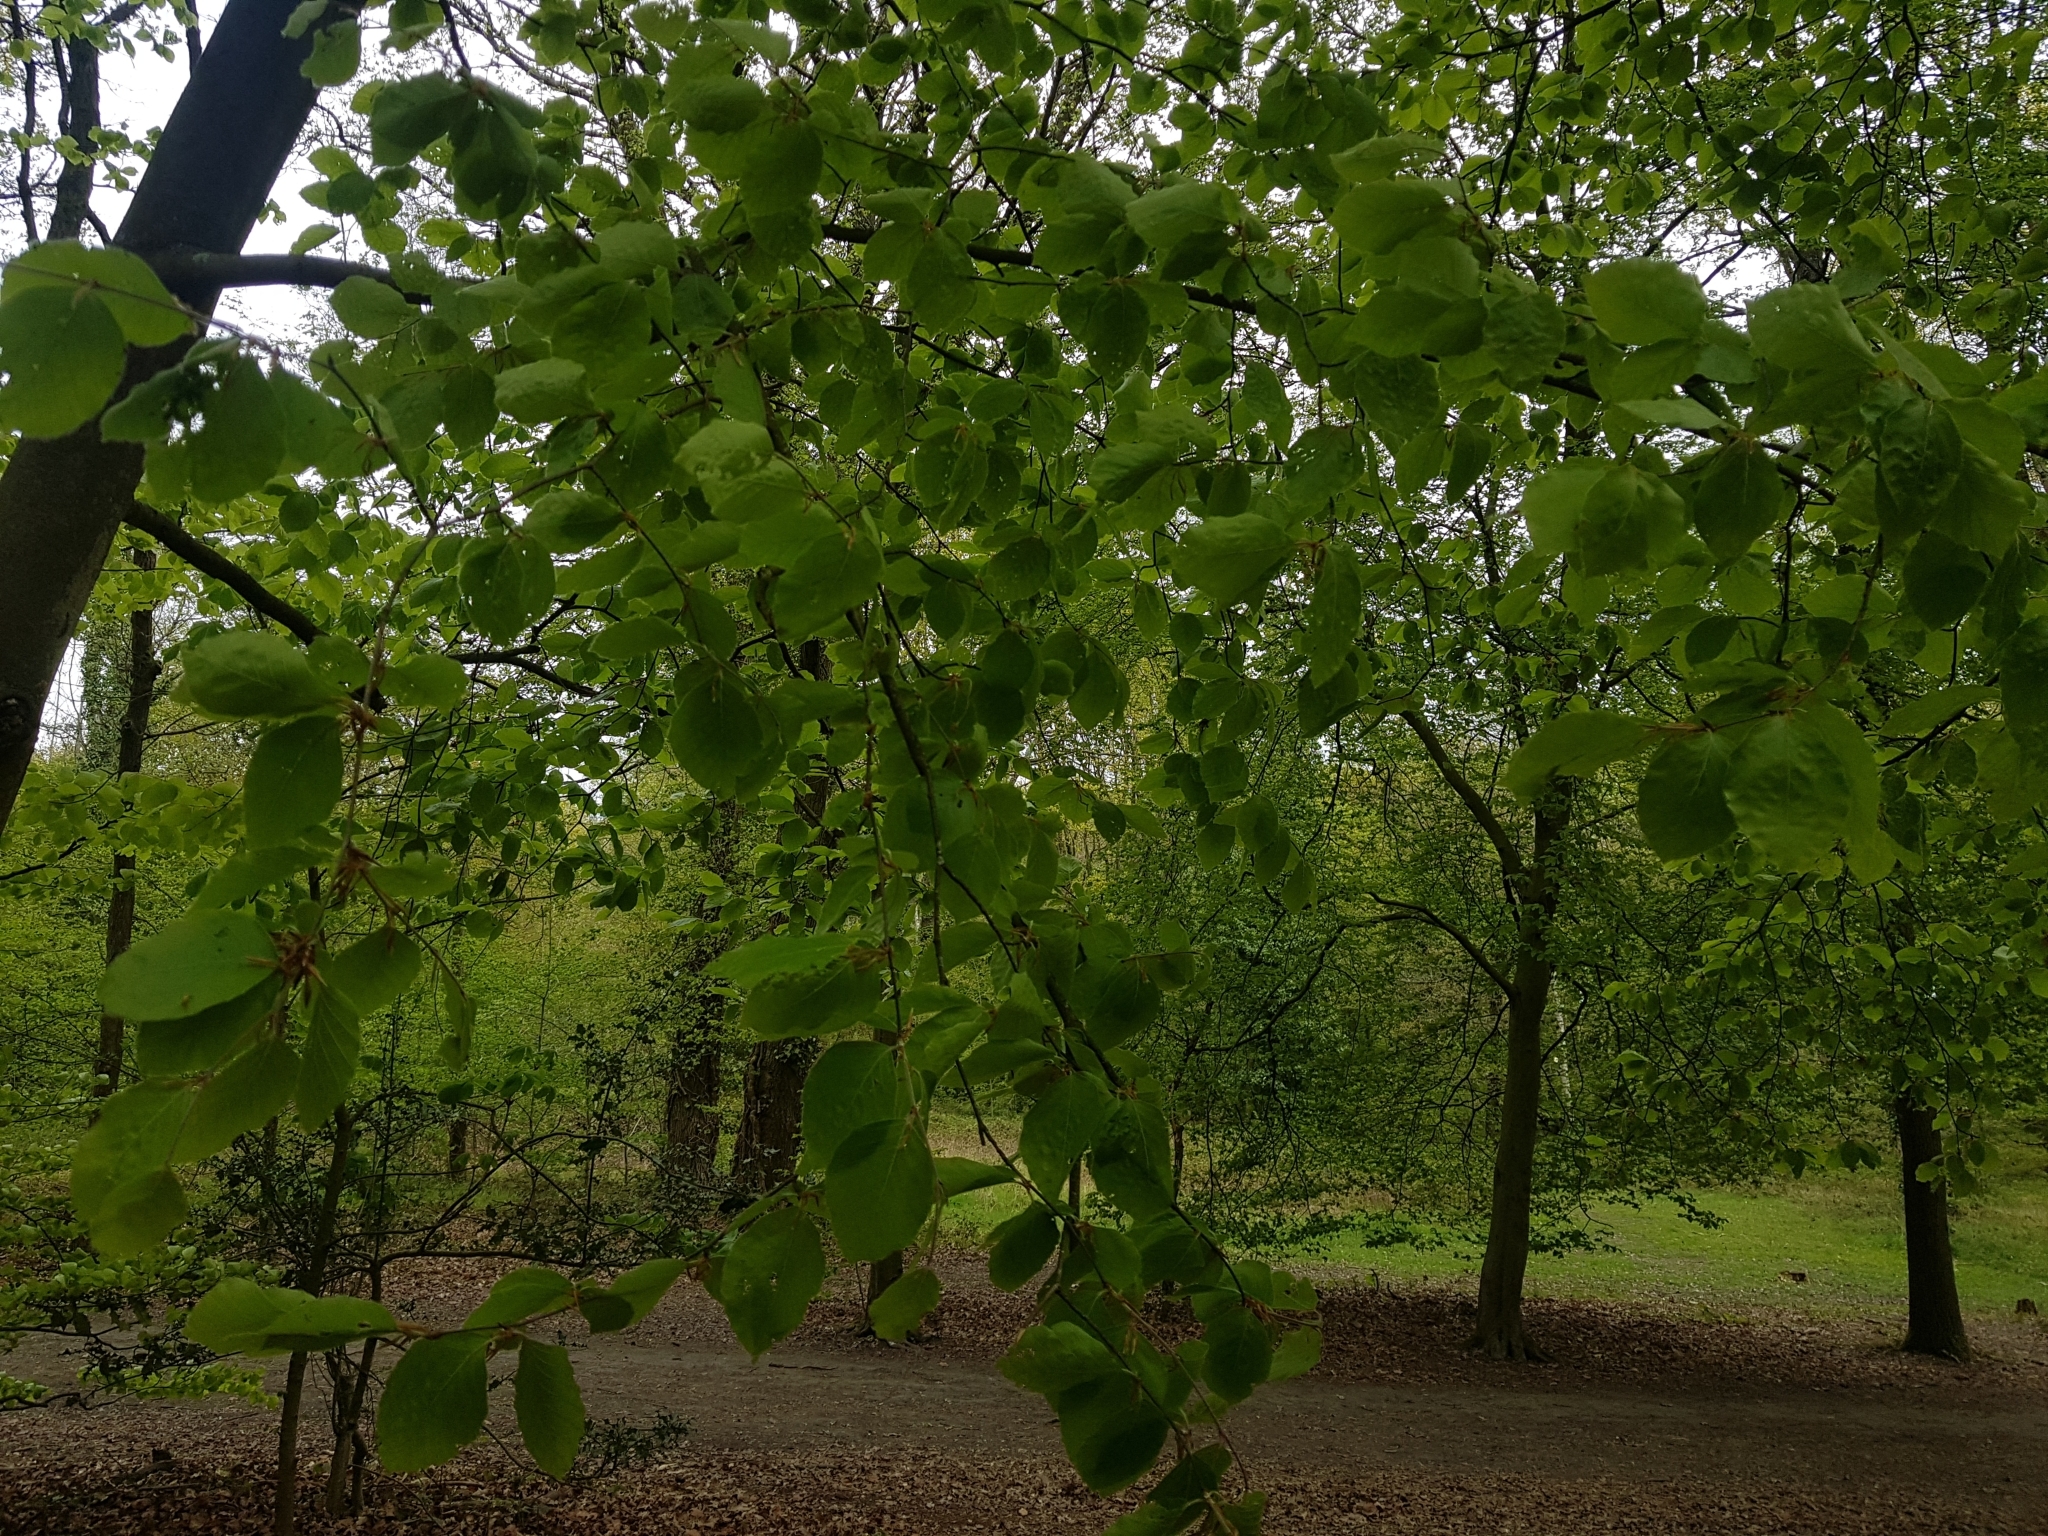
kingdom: Plantae
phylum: Tracheophyta
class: Magnoliopsida
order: Fagales
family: Fagaceae
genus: Fagus
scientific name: Fagus sylvatica
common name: Beech
